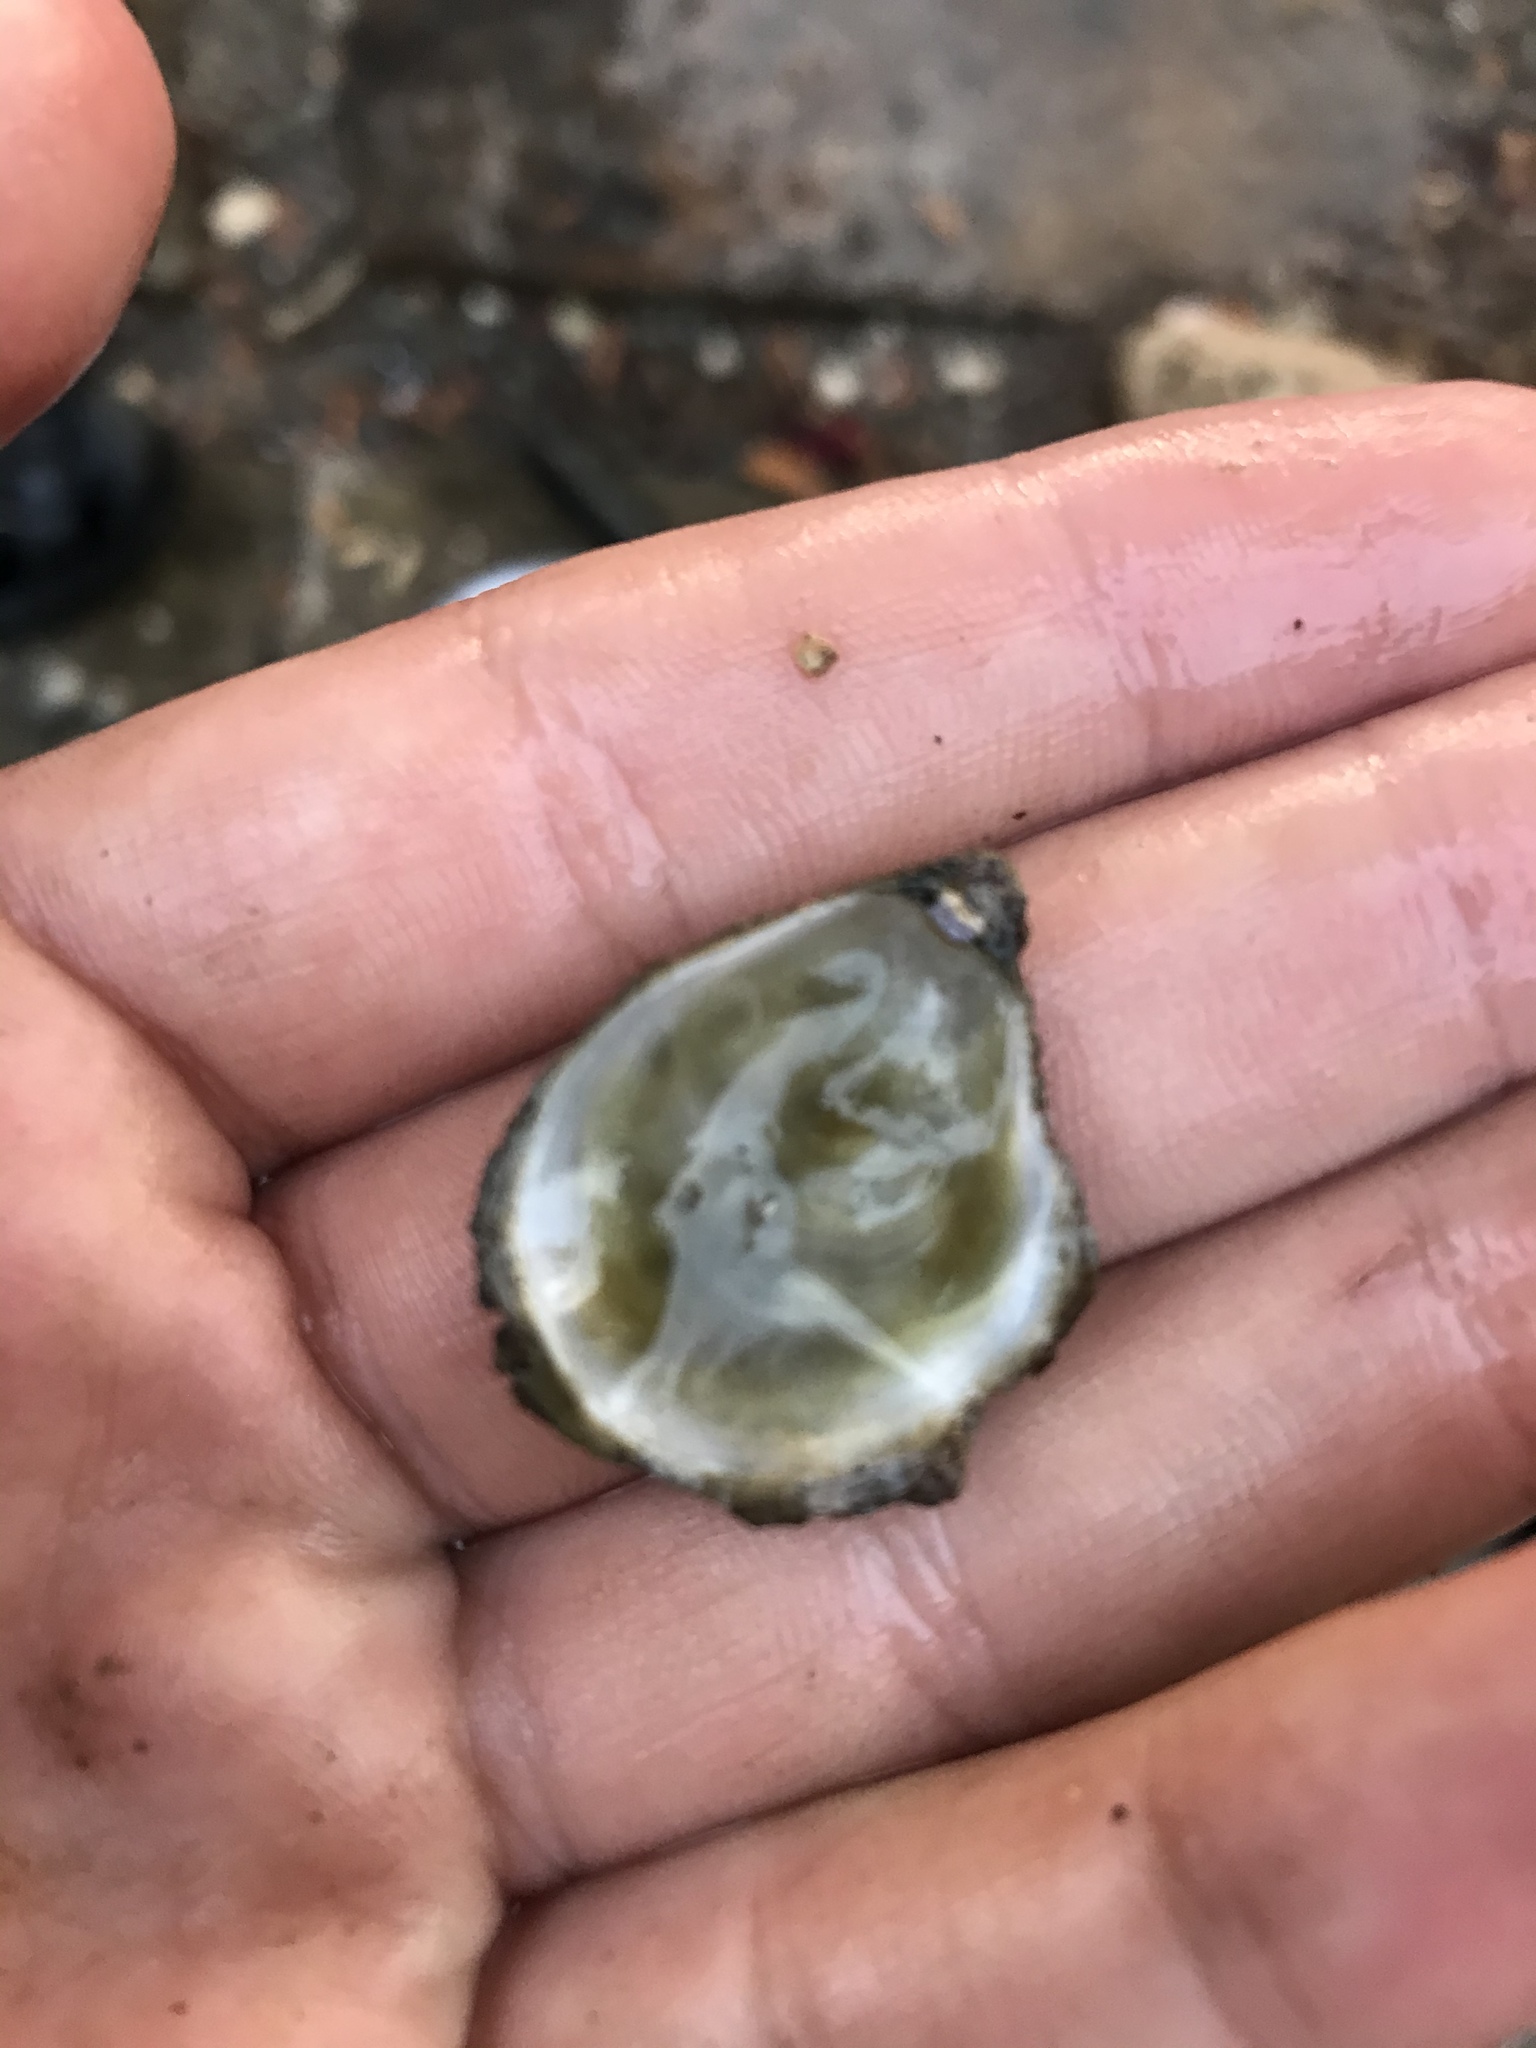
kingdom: Animalia
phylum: Mollusca
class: Bivalvia
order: Ostreida
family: Ostreidae
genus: Ostrea
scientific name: Ostrea lurida
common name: Olympia flat oyster
